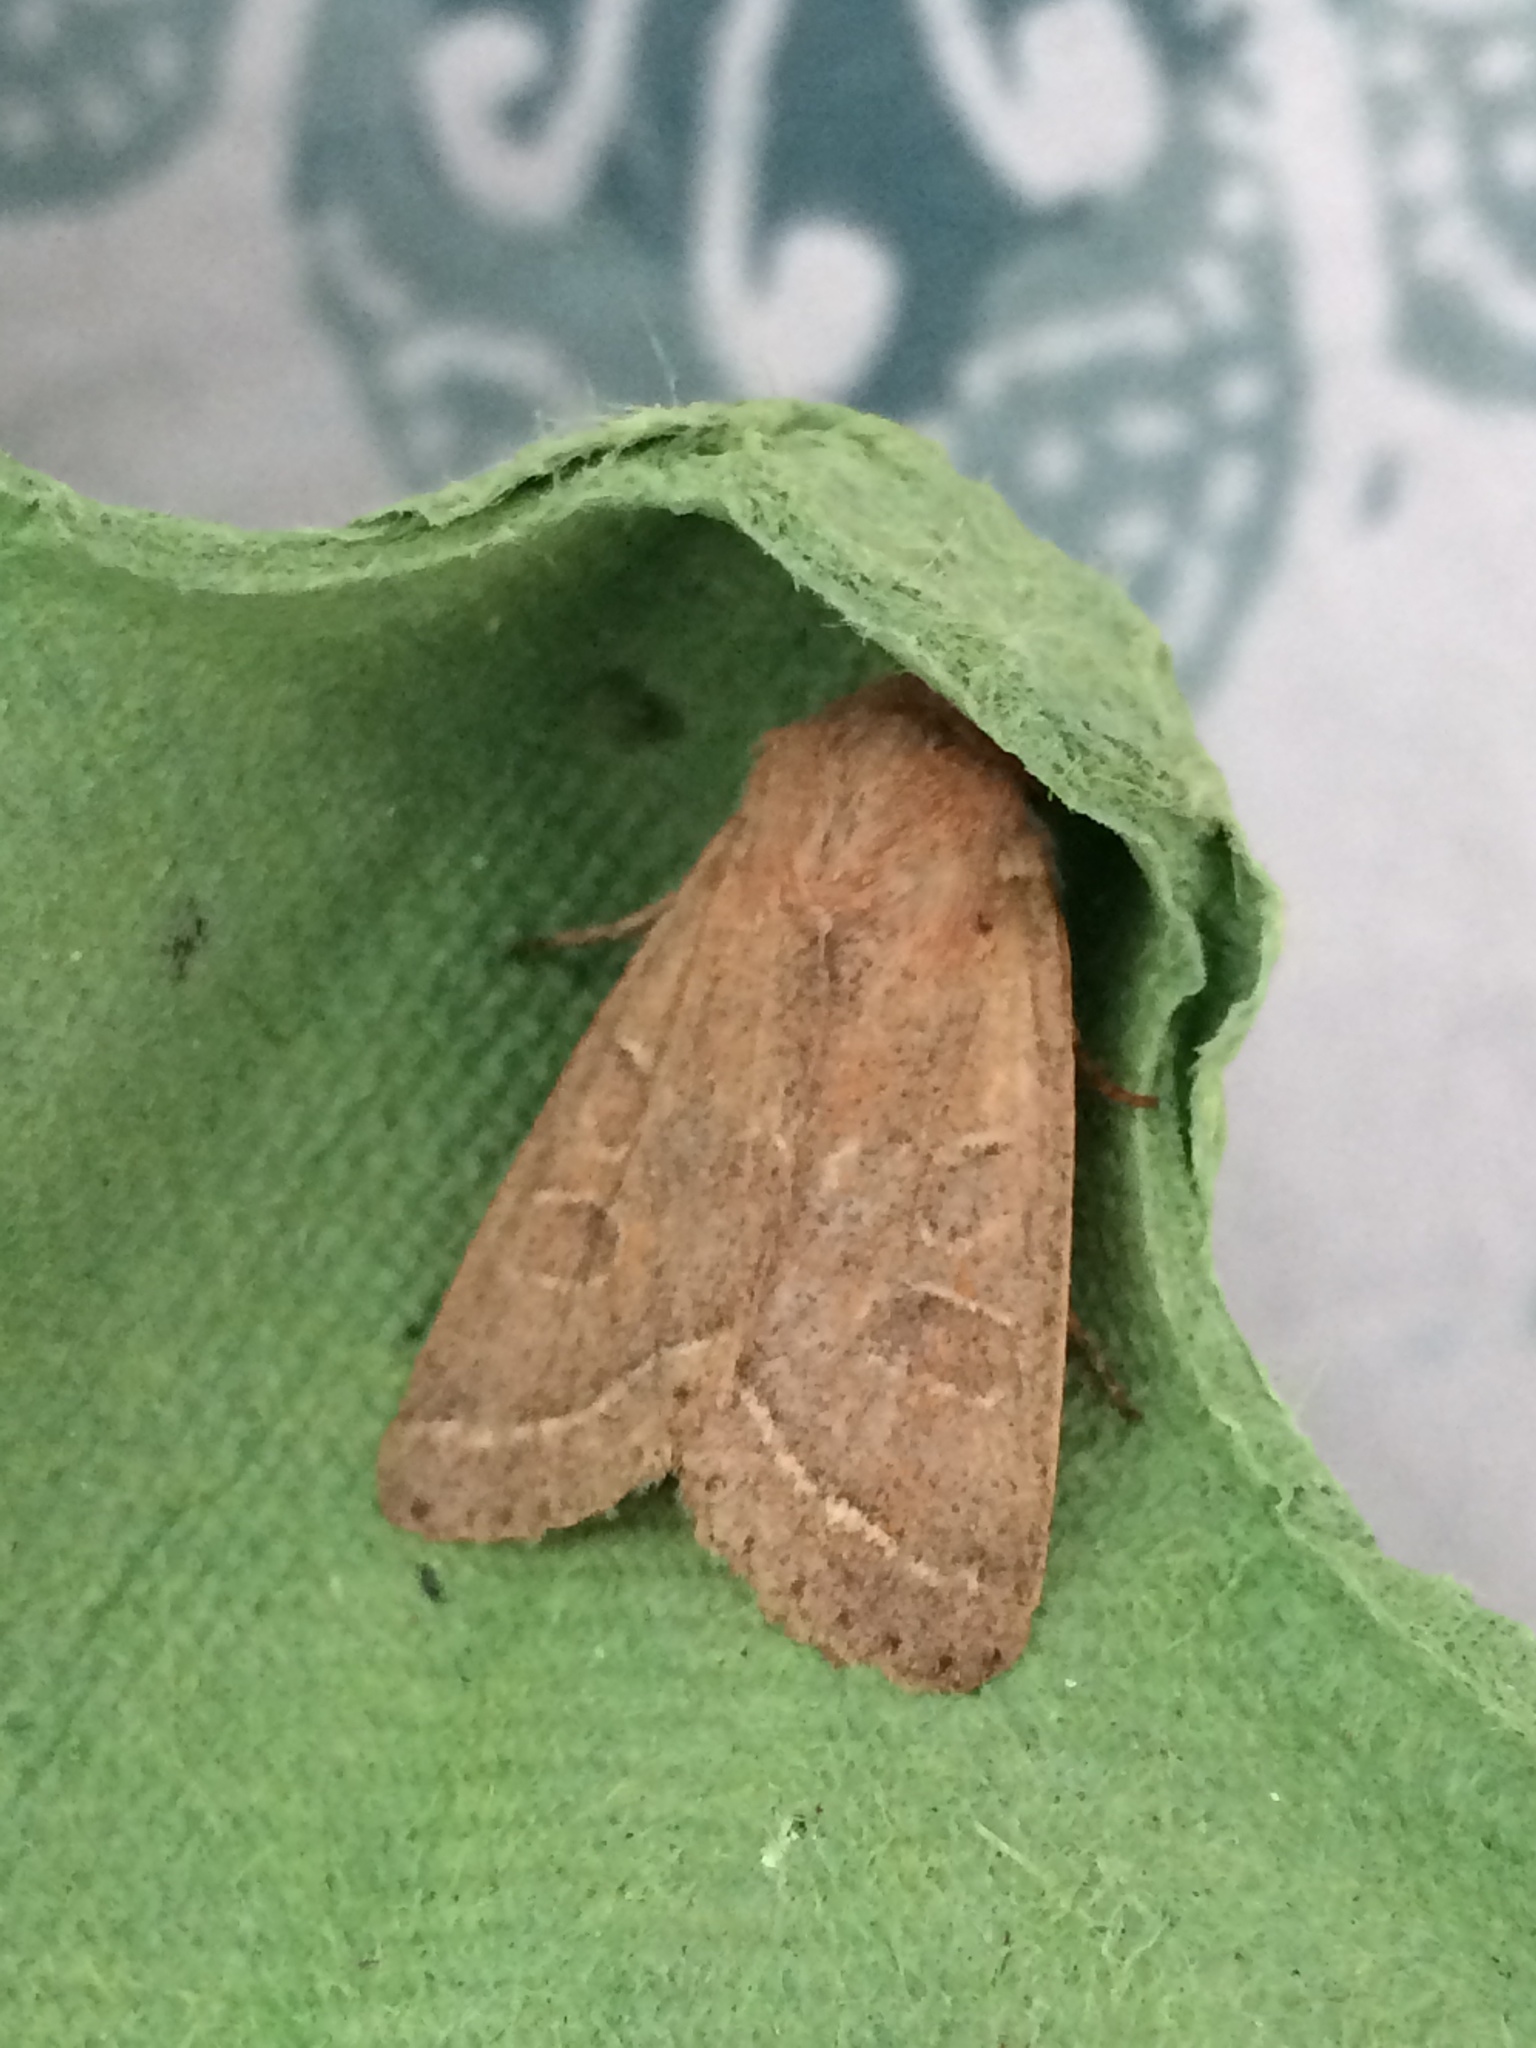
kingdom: Animalia
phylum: Arthropoda
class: Insecta
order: Lepidoptera
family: Noctuidae
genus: Orthosia
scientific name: Orthosia cerasi
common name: Common quaker
